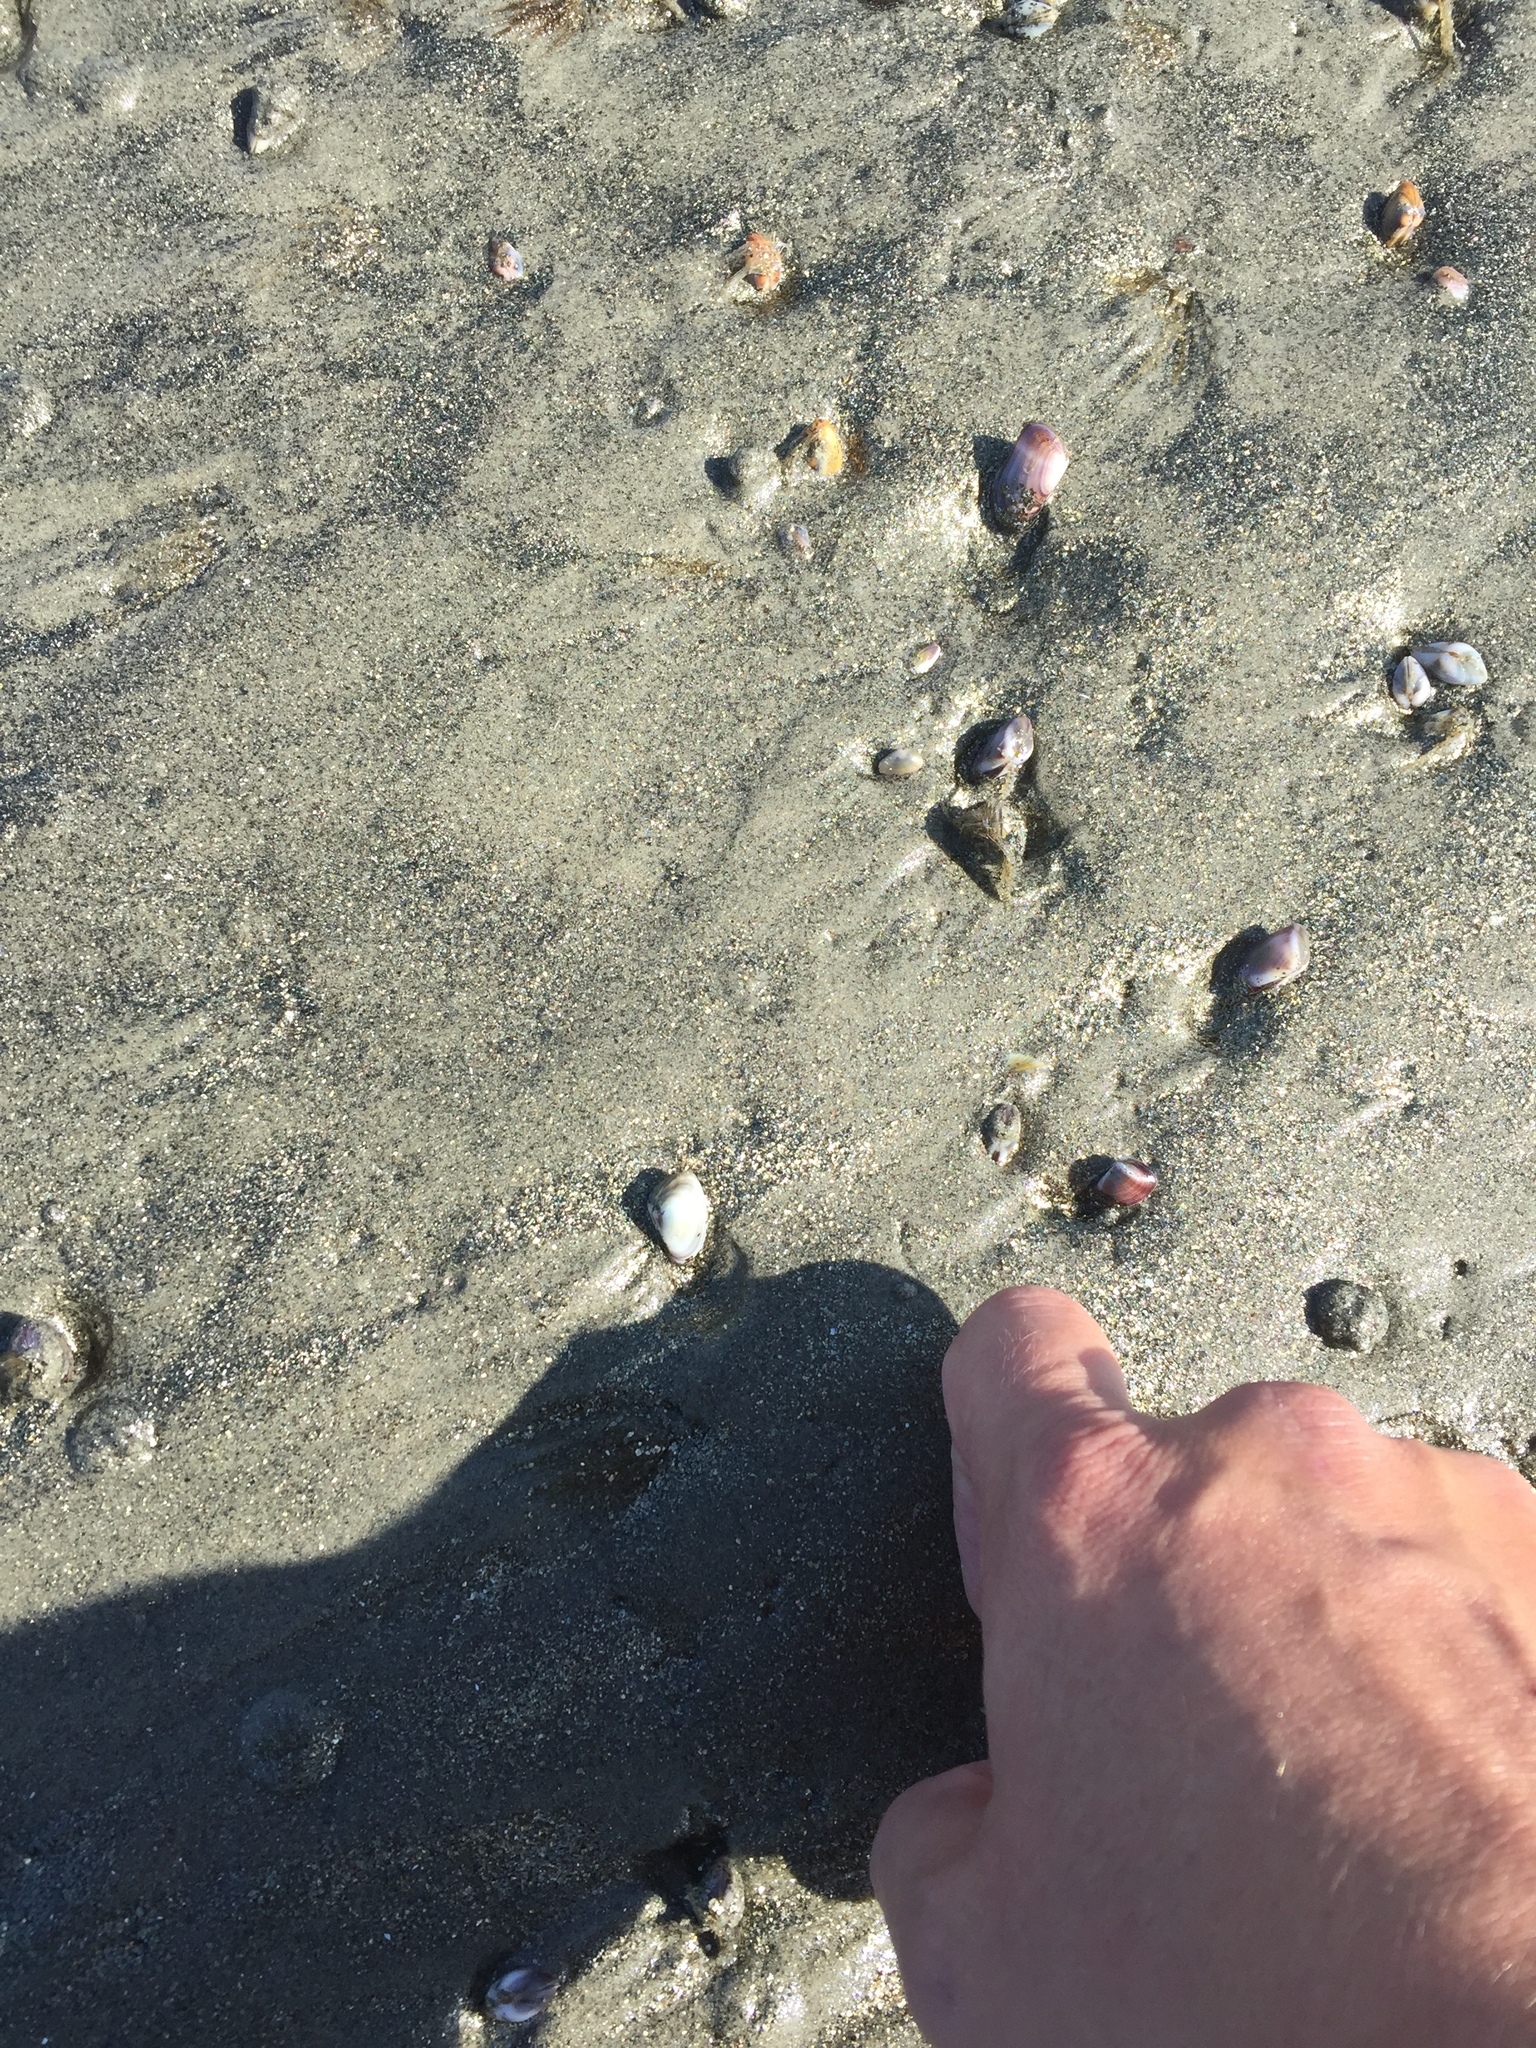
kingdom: Animalia
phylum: Mollusca
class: Bivalvia
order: Cardiida
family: Donacidae
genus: Donax
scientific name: Donax gouldii
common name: Gould beanclam
